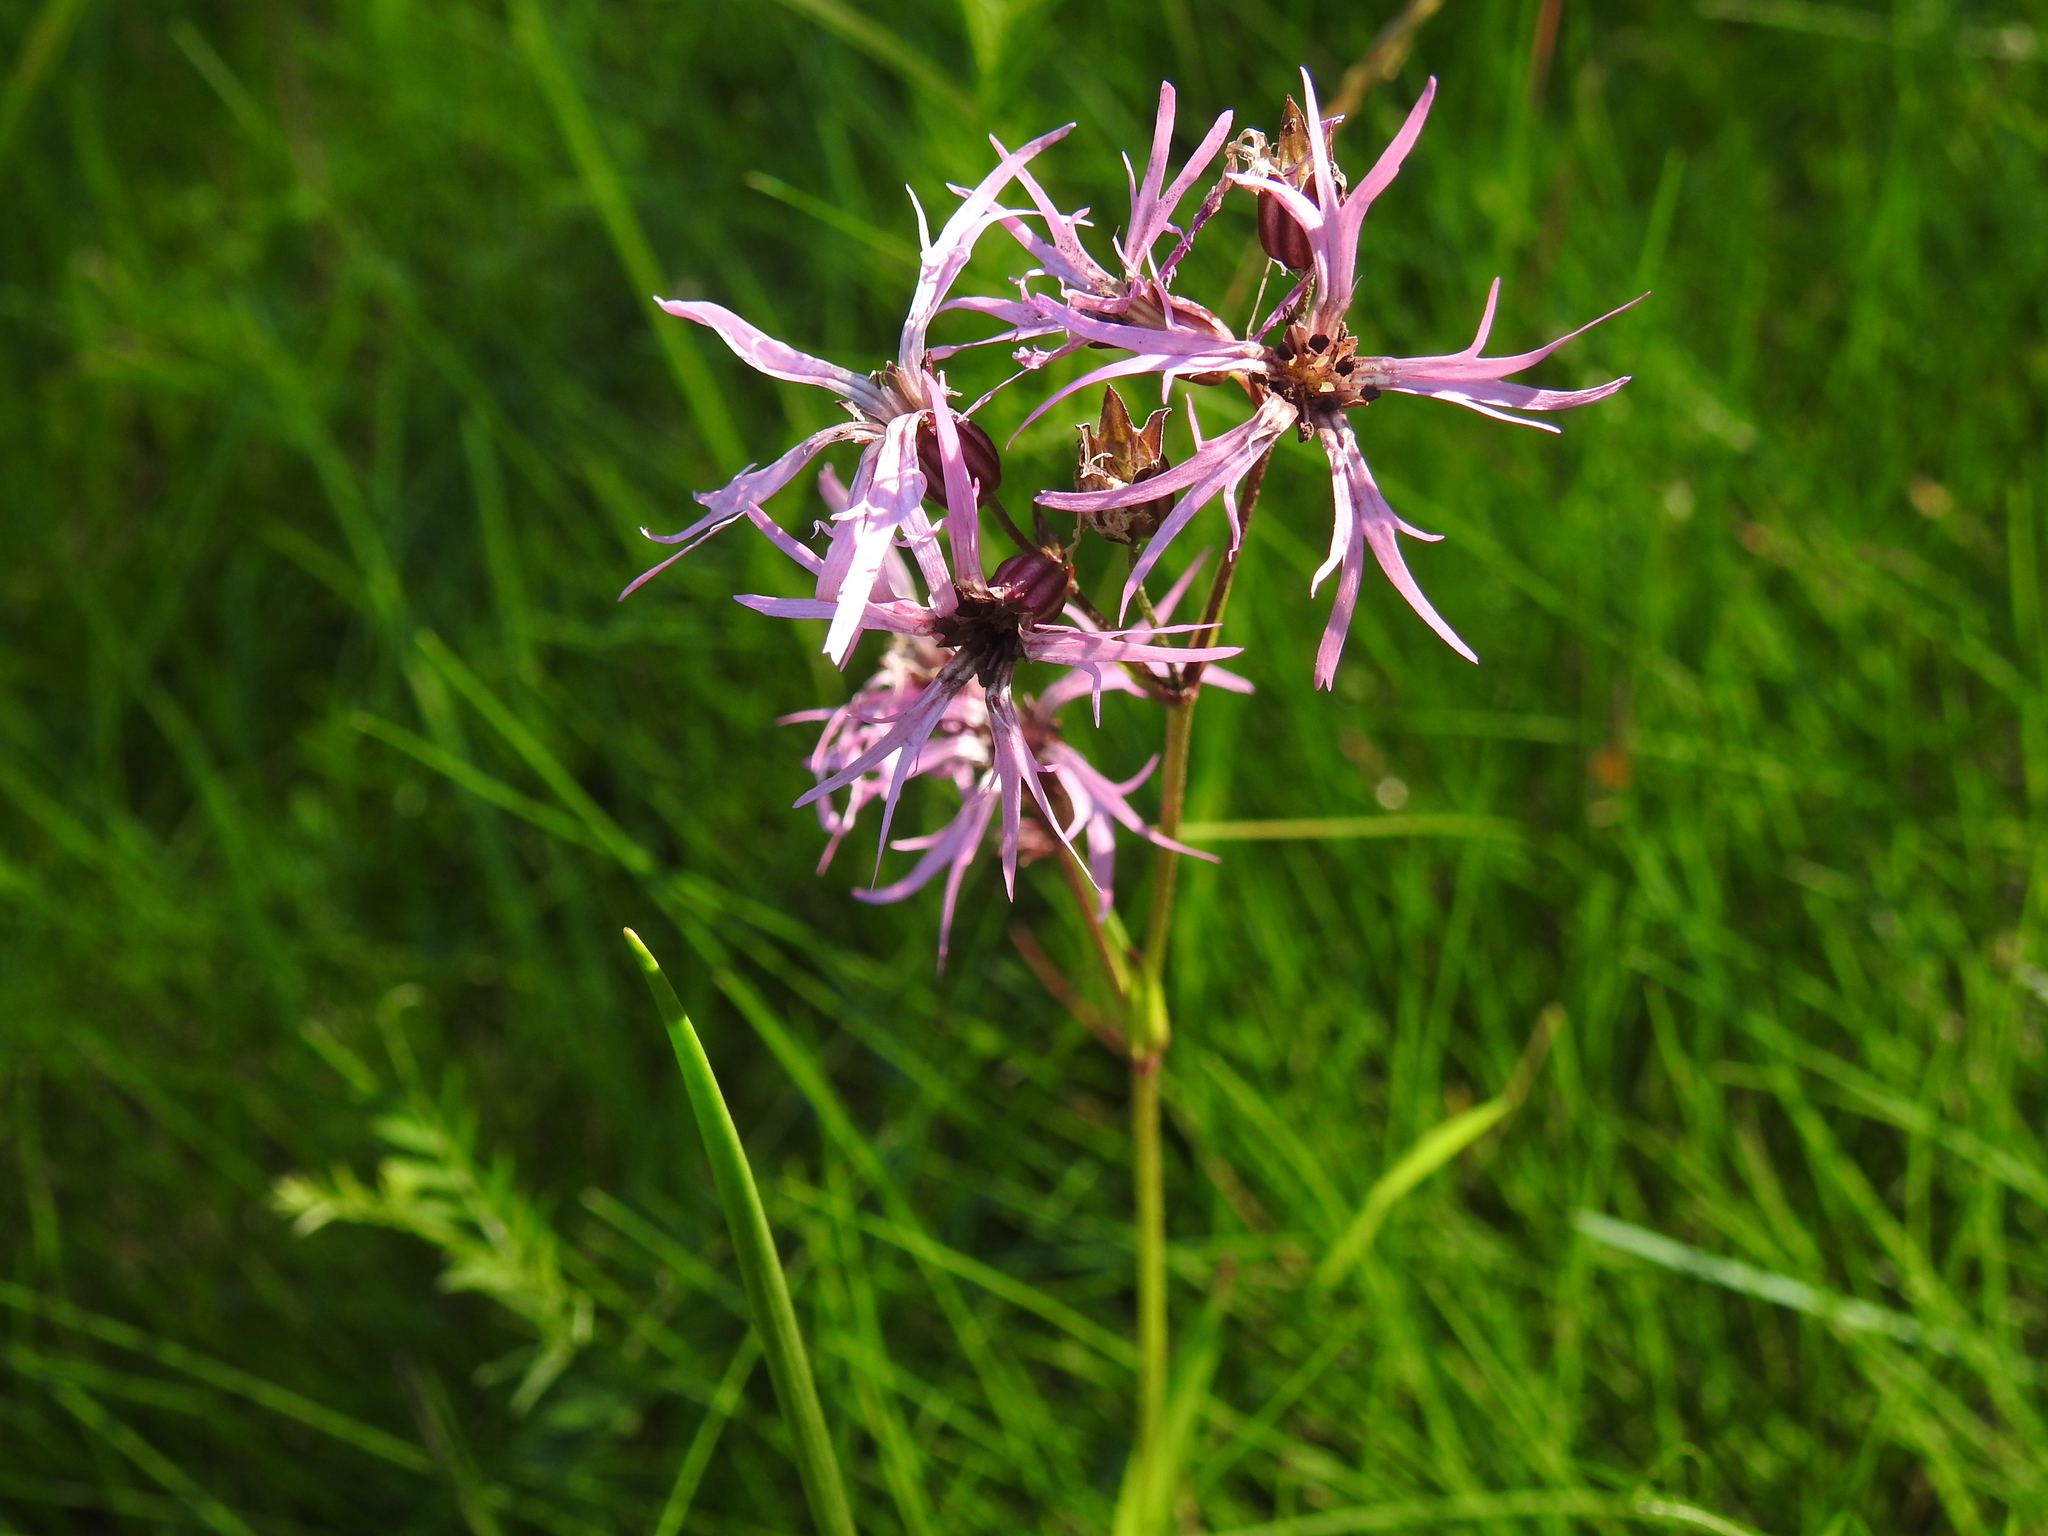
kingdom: Plantae
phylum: Tracheophyta
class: Magnoliopsida
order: Caryophyllales
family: Caryophyllaceae
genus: Silene
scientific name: Silene flos-cuculi
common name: Ragged-robin
